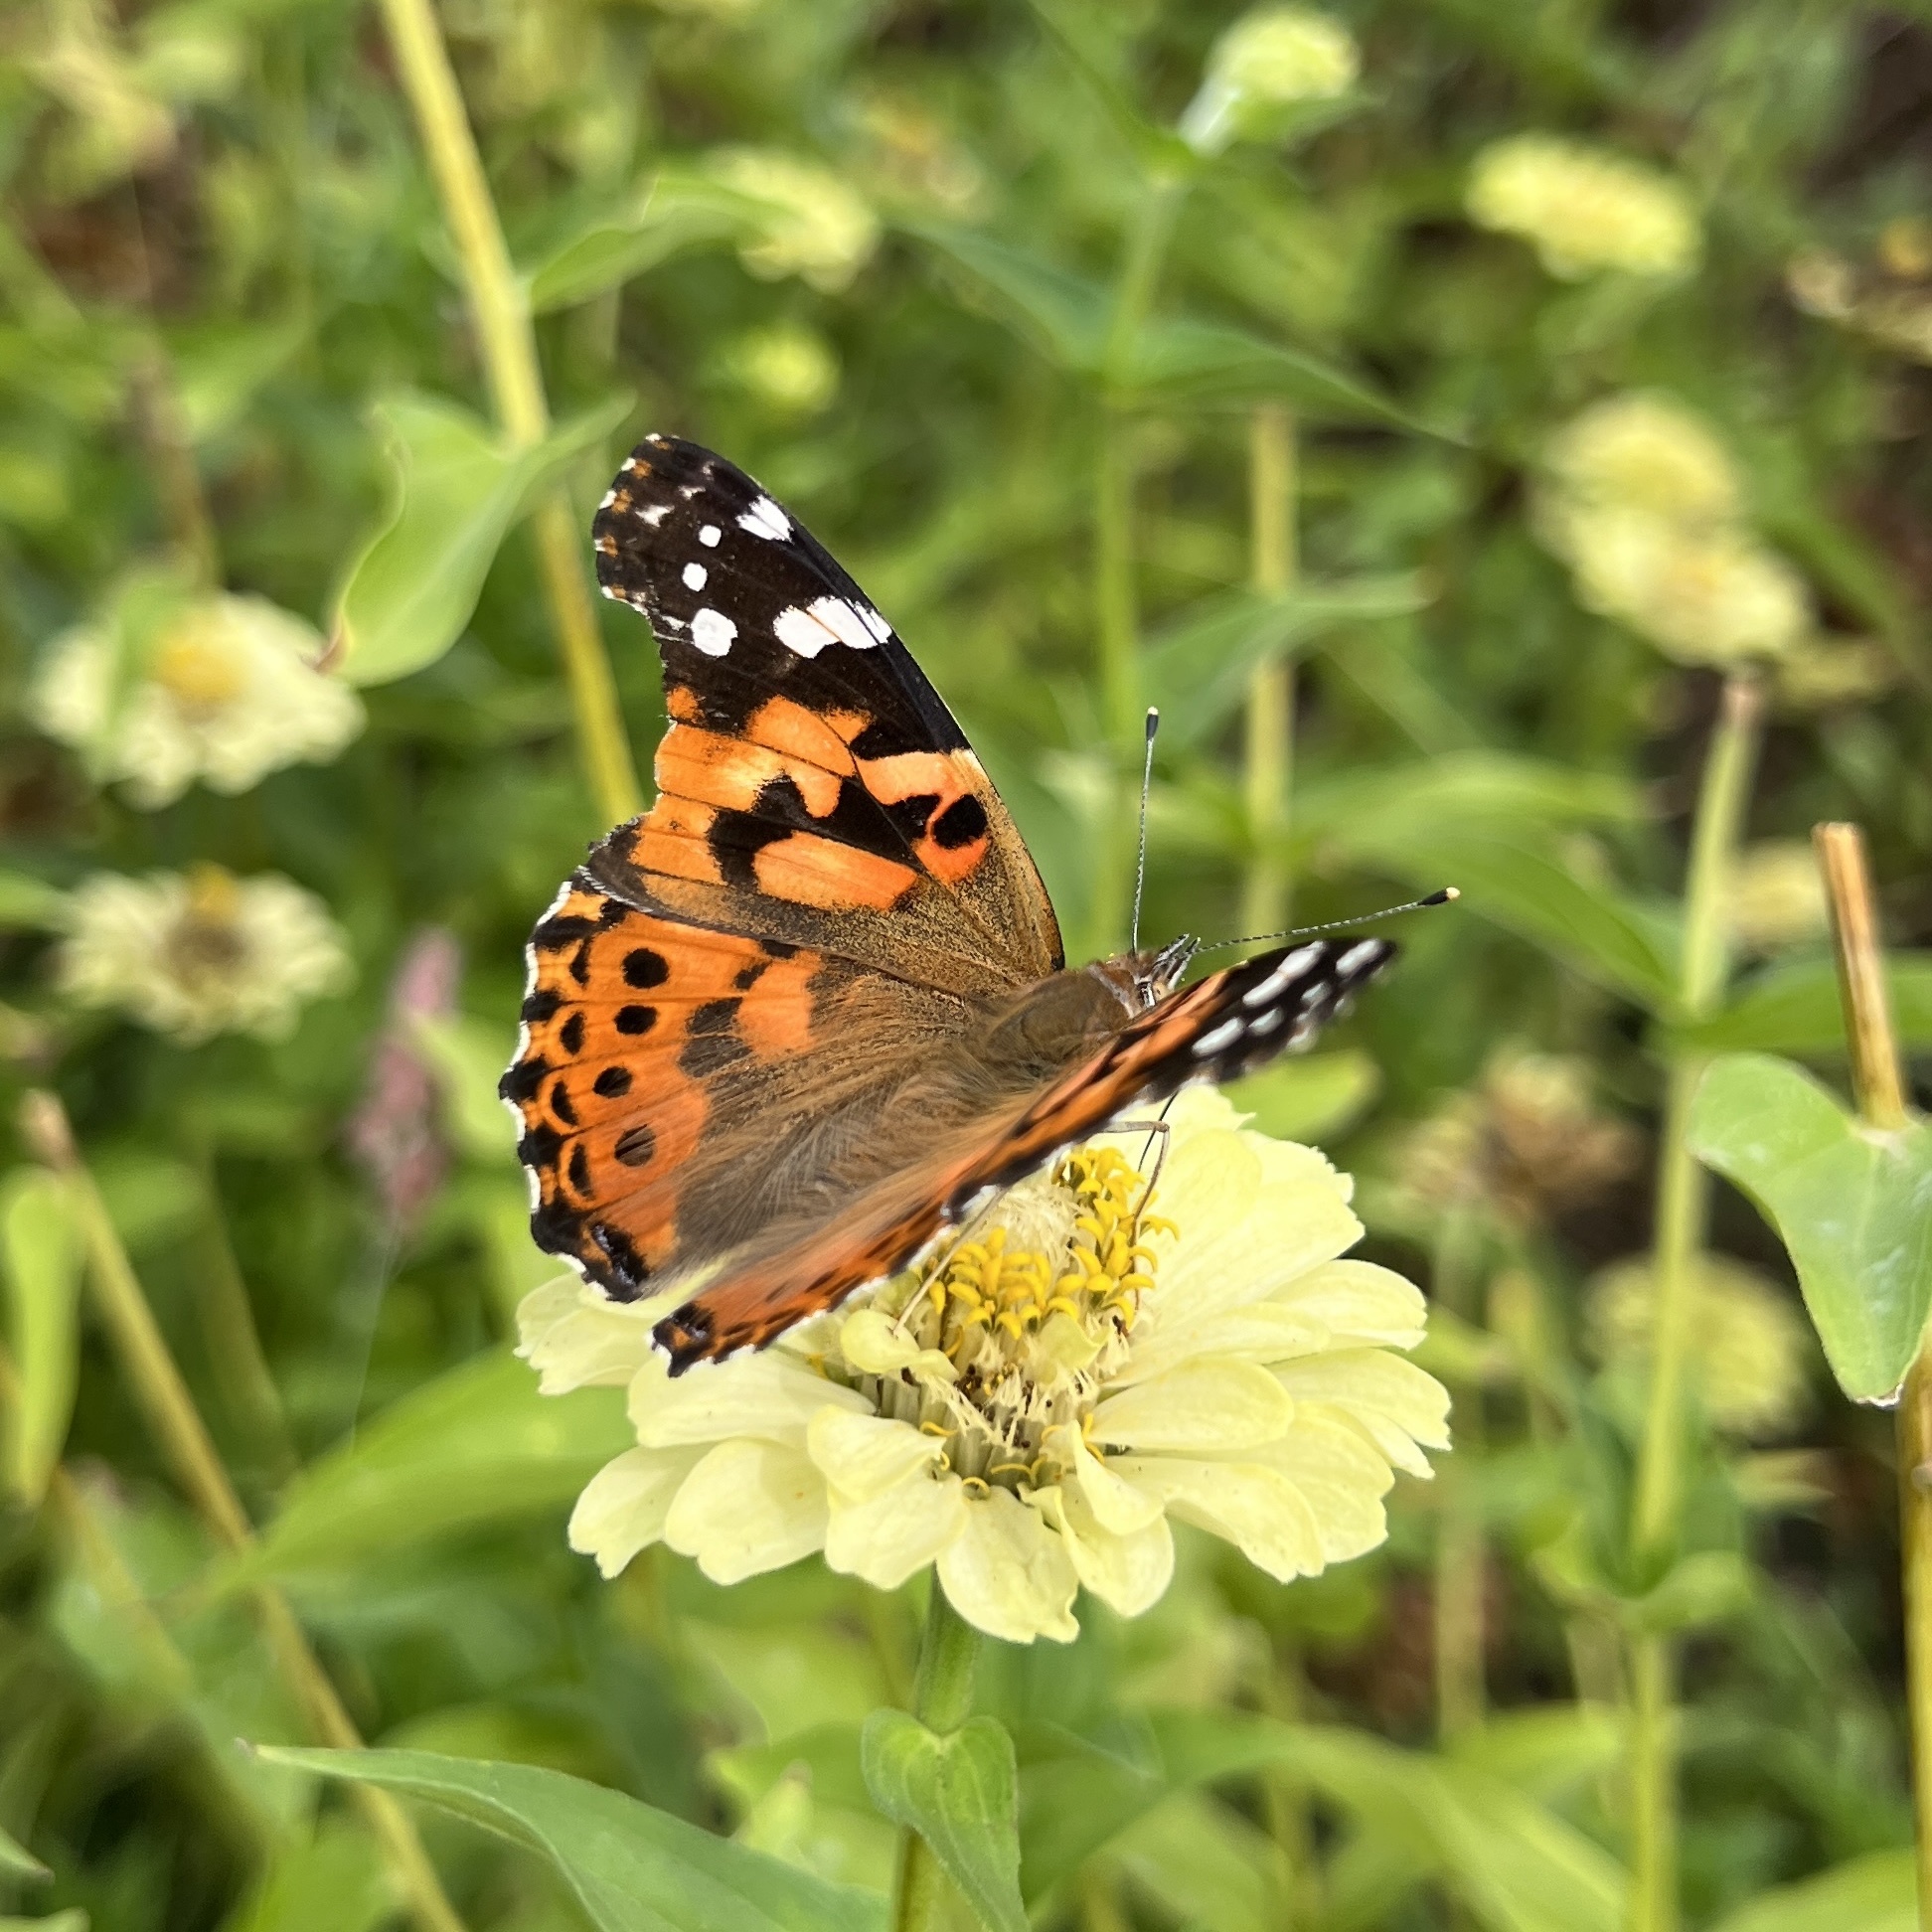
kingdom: Animalia
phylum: Arthropoda
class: Insecta
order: Lepidoptera
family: Nymphalidae
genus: Vanessa
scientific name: Vanessa cardui
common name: Painted lady
